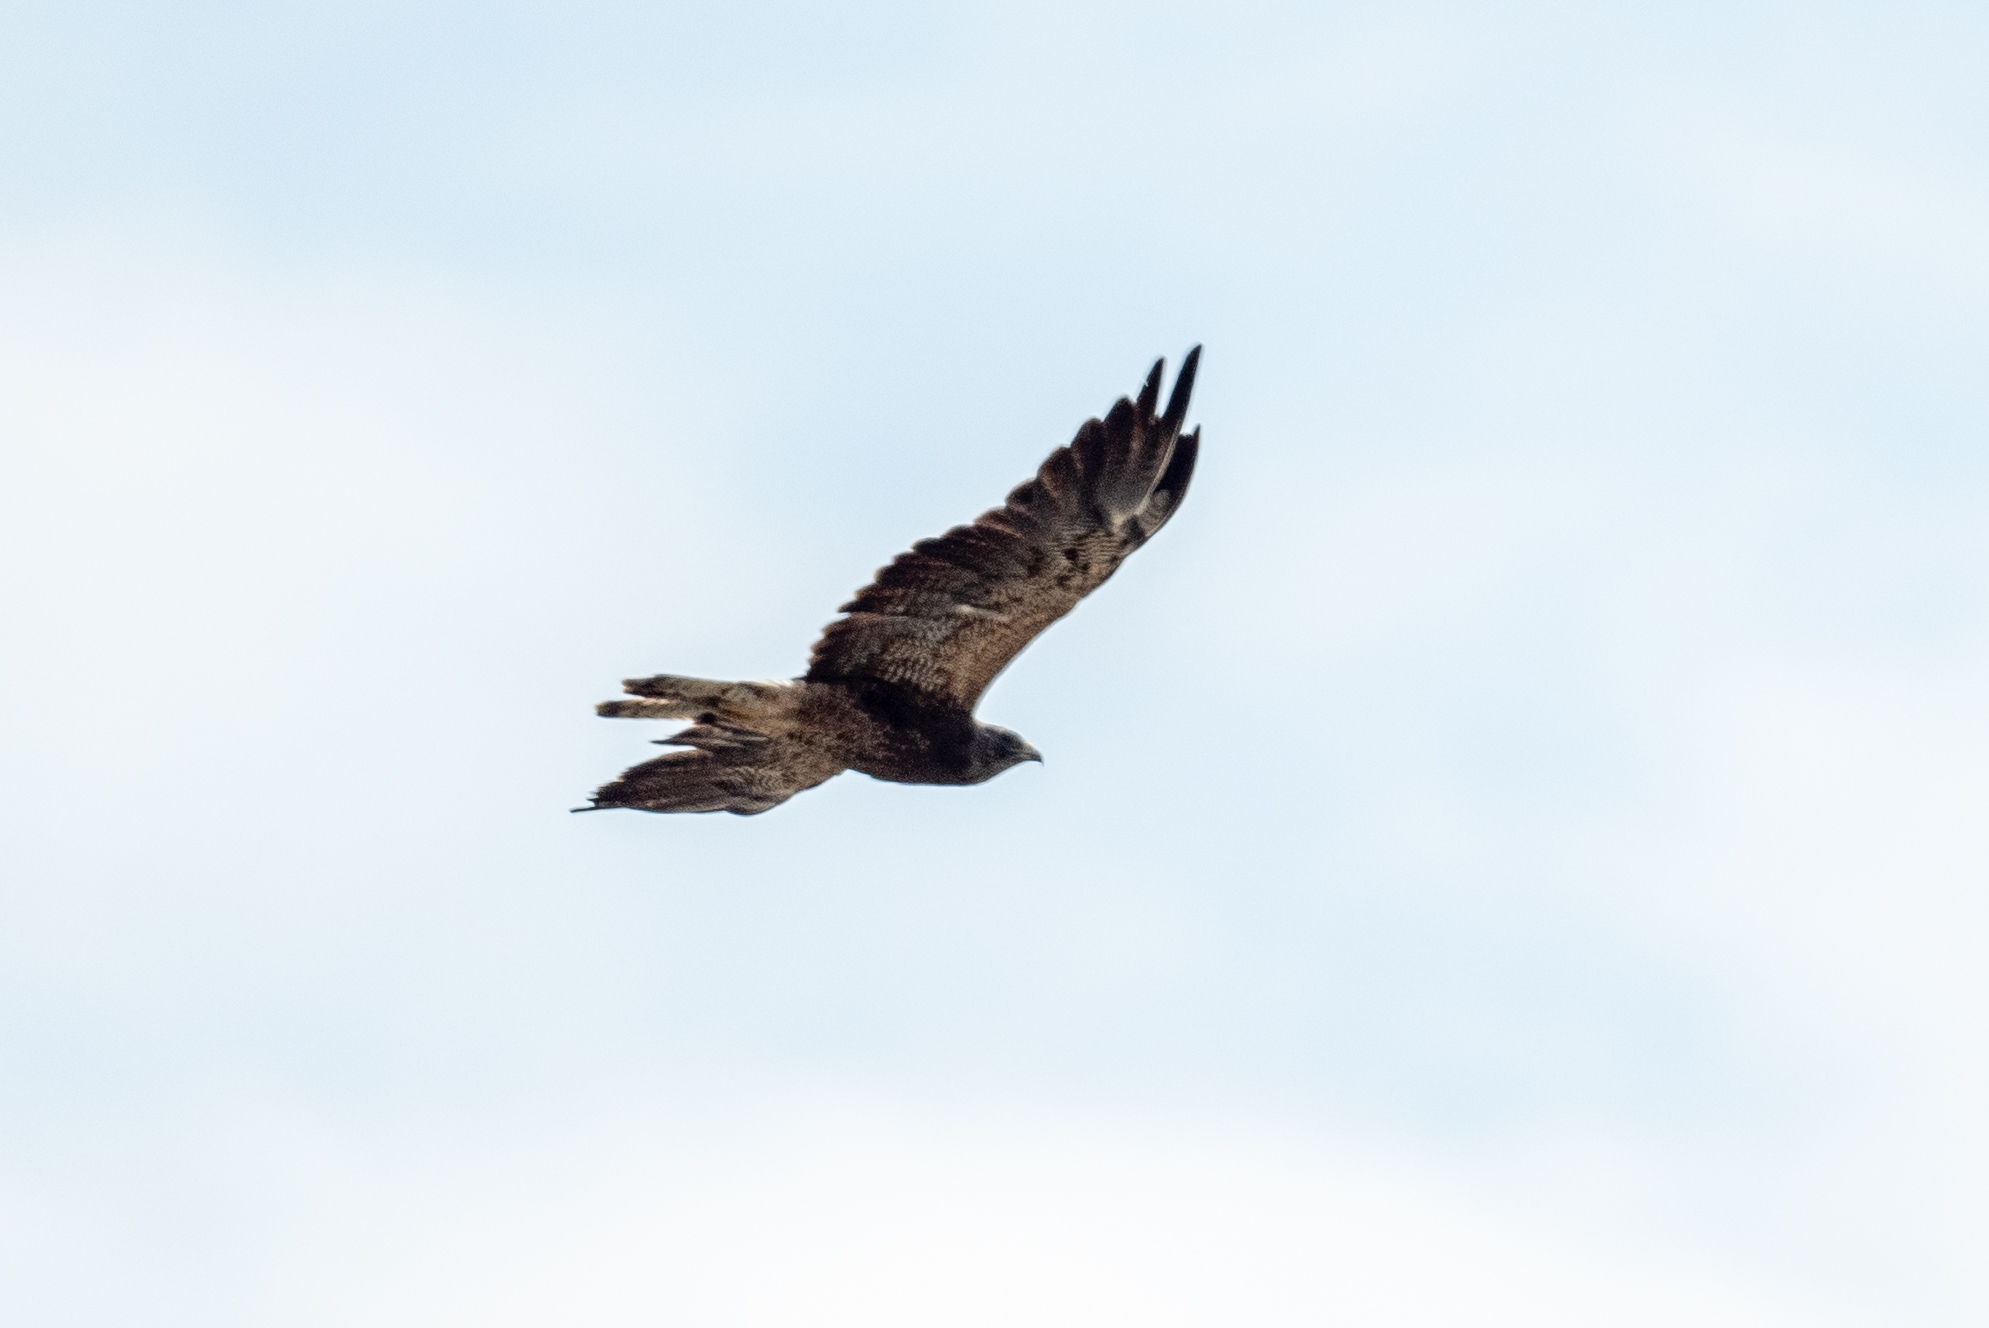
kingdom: Animalia
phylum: Chordata
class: Aves
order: Accipitriformes
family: Accipitridae
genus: Buteo
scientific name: Buteo swainsoni
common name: Swainson's hawk
